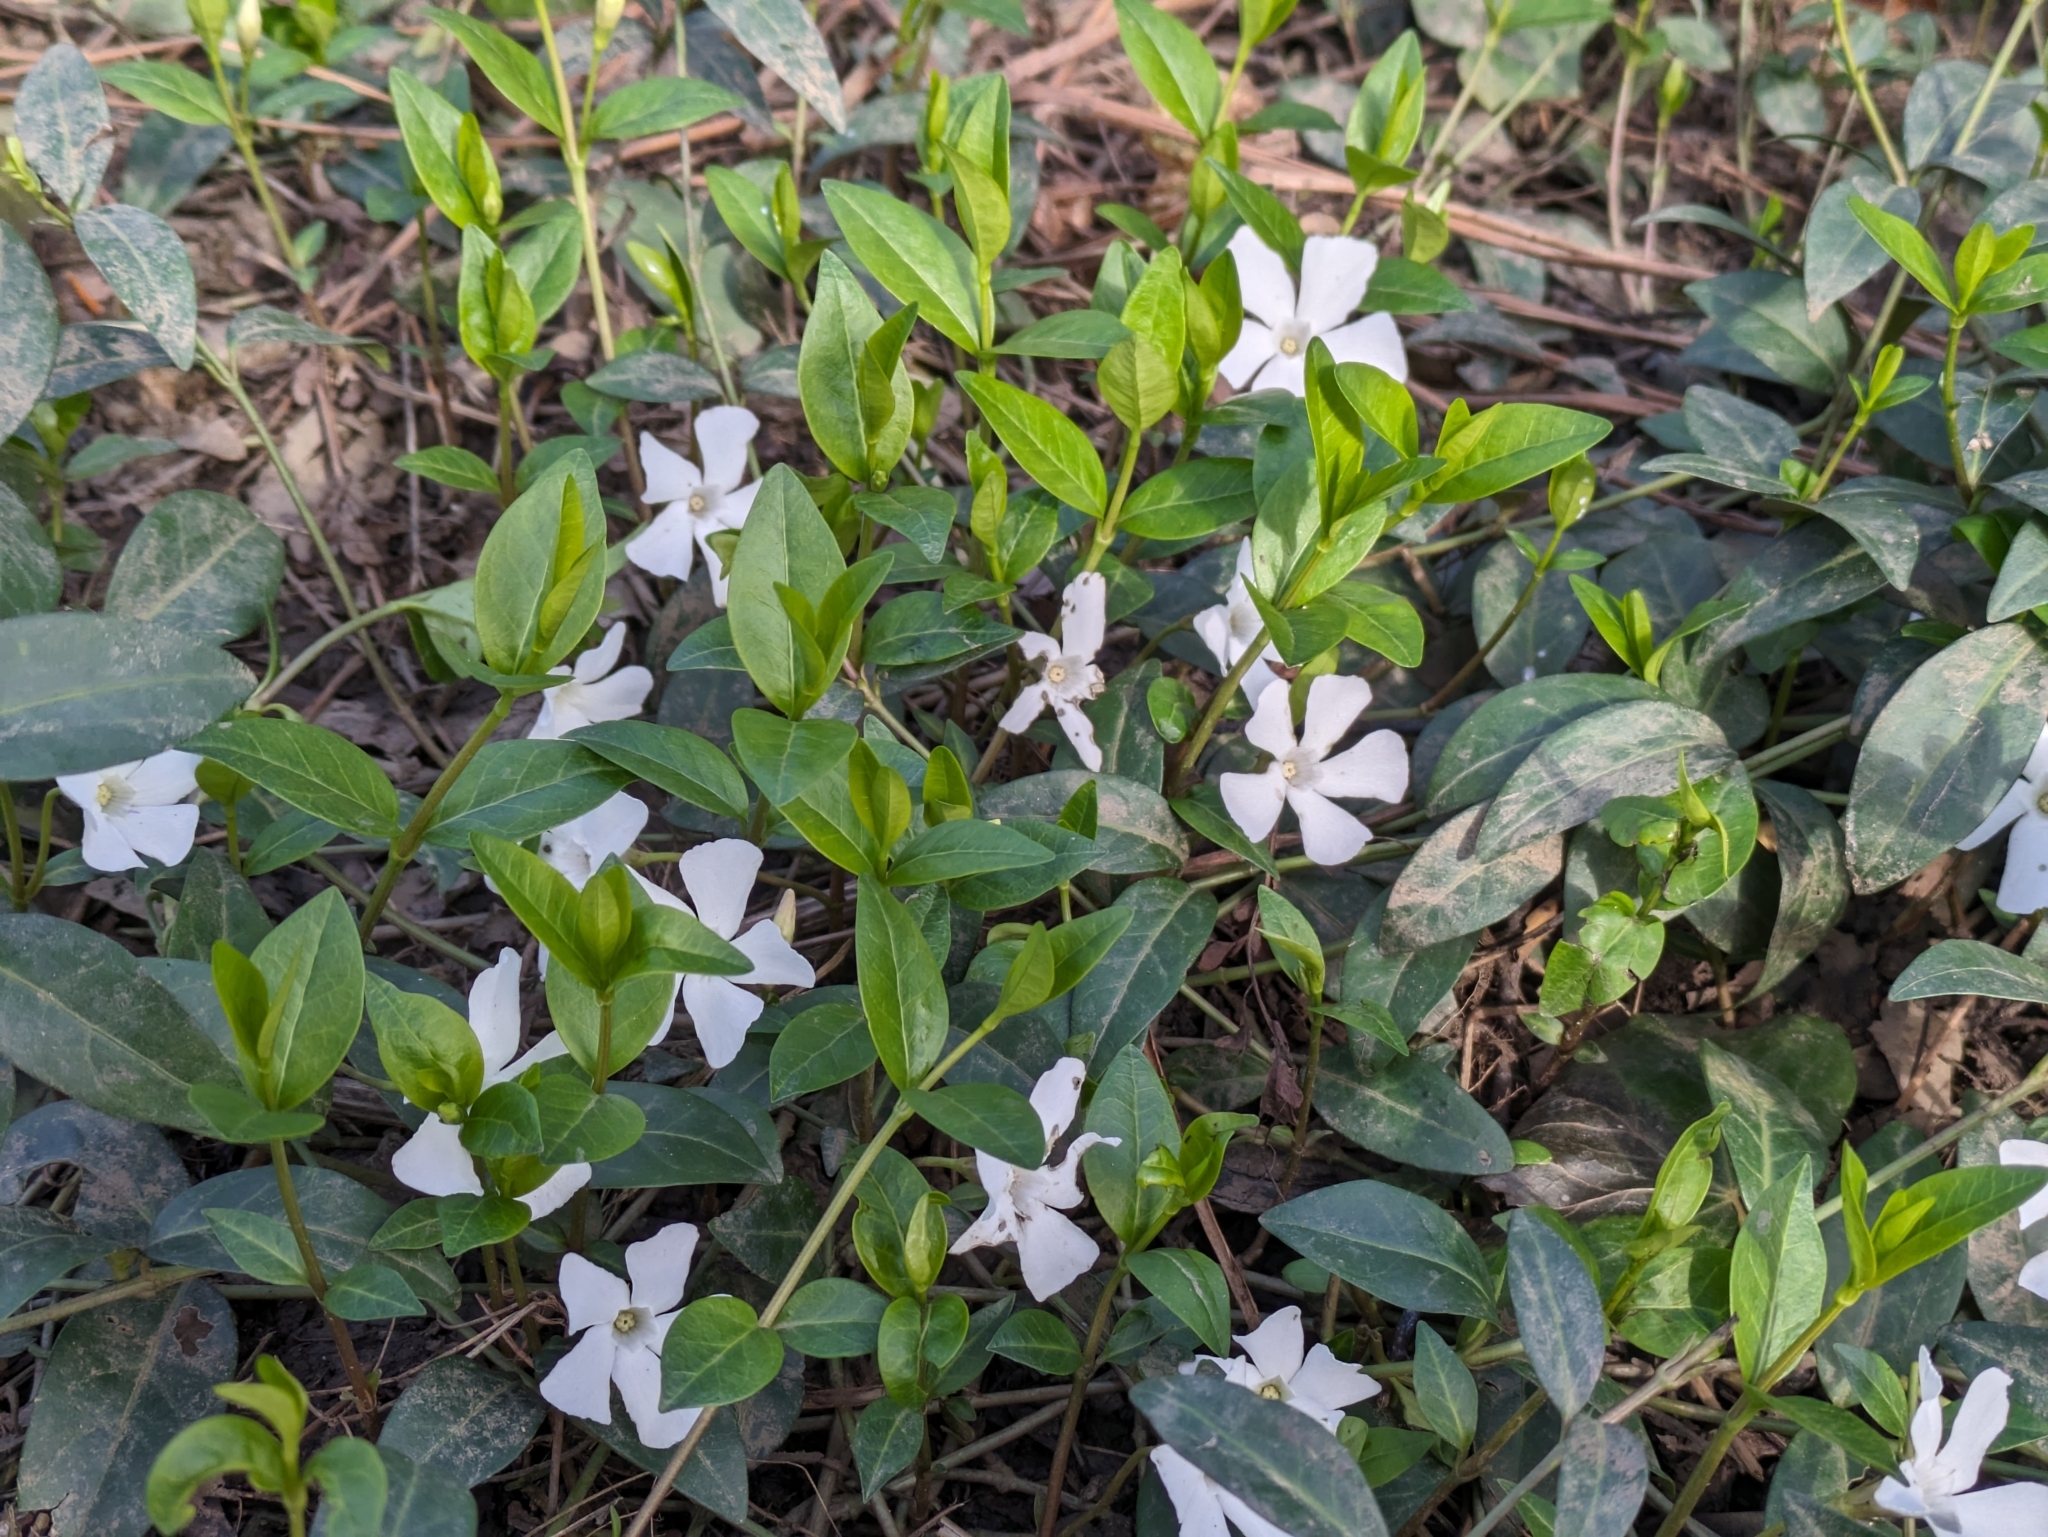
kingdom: Plantae
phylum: Tracheophyta
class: Magnoliopsida
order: Gentianales
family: Apocynaceae
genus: Vinca
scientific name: Vinca minor
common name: Lesser periwinkle
